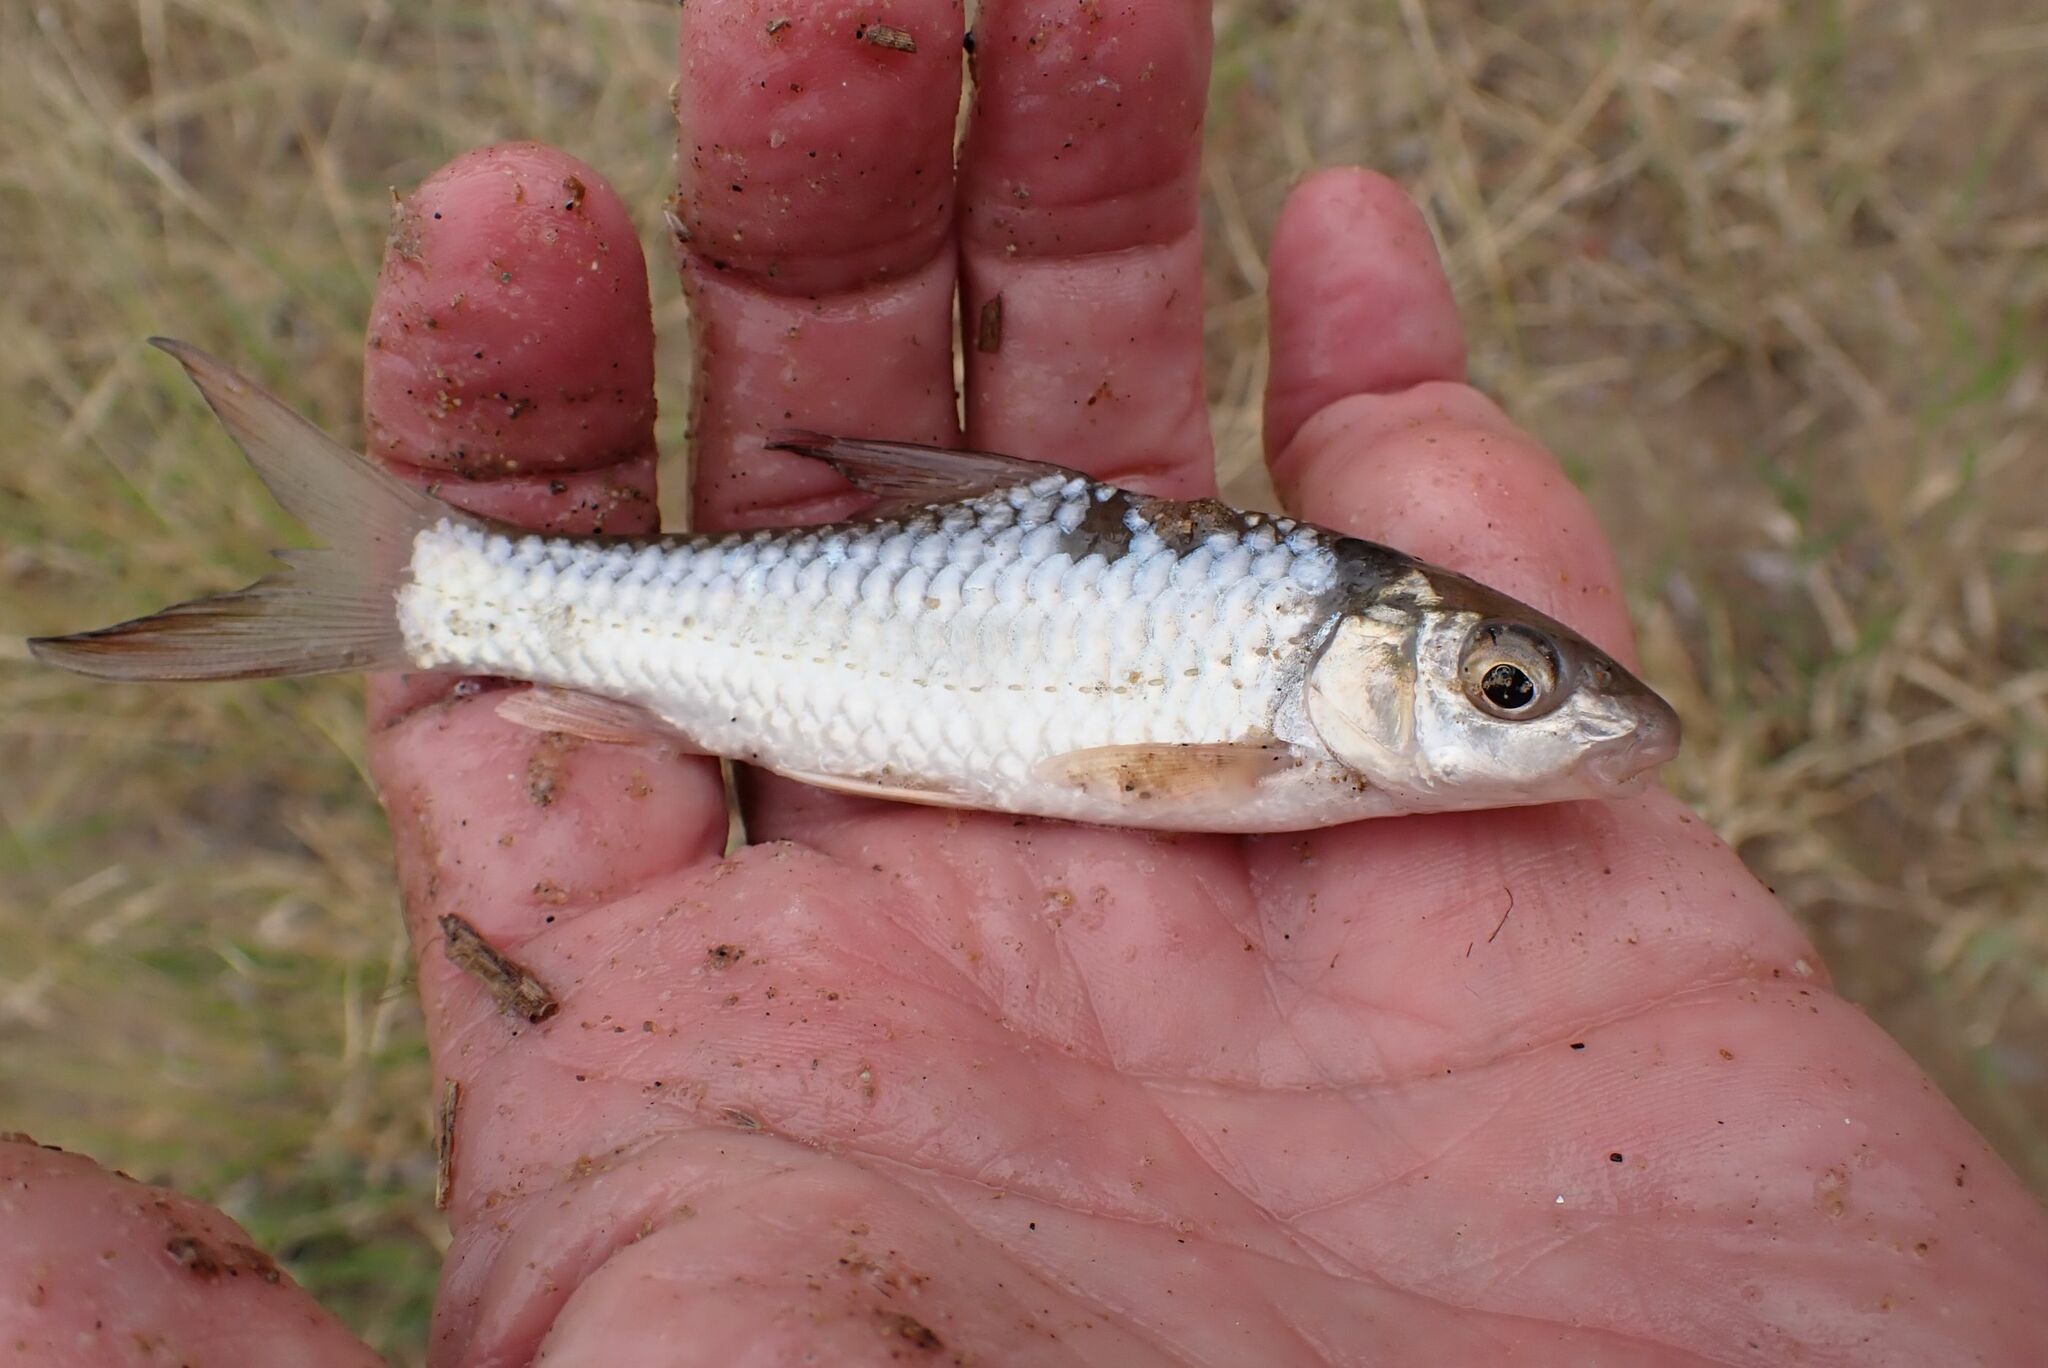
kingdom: Animalia
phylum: Chordata
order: Cypriniformes
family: Cyprinidae
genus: Labeobarbus
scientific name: Labeobarbus marequensis
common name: Largescale yellowfish
